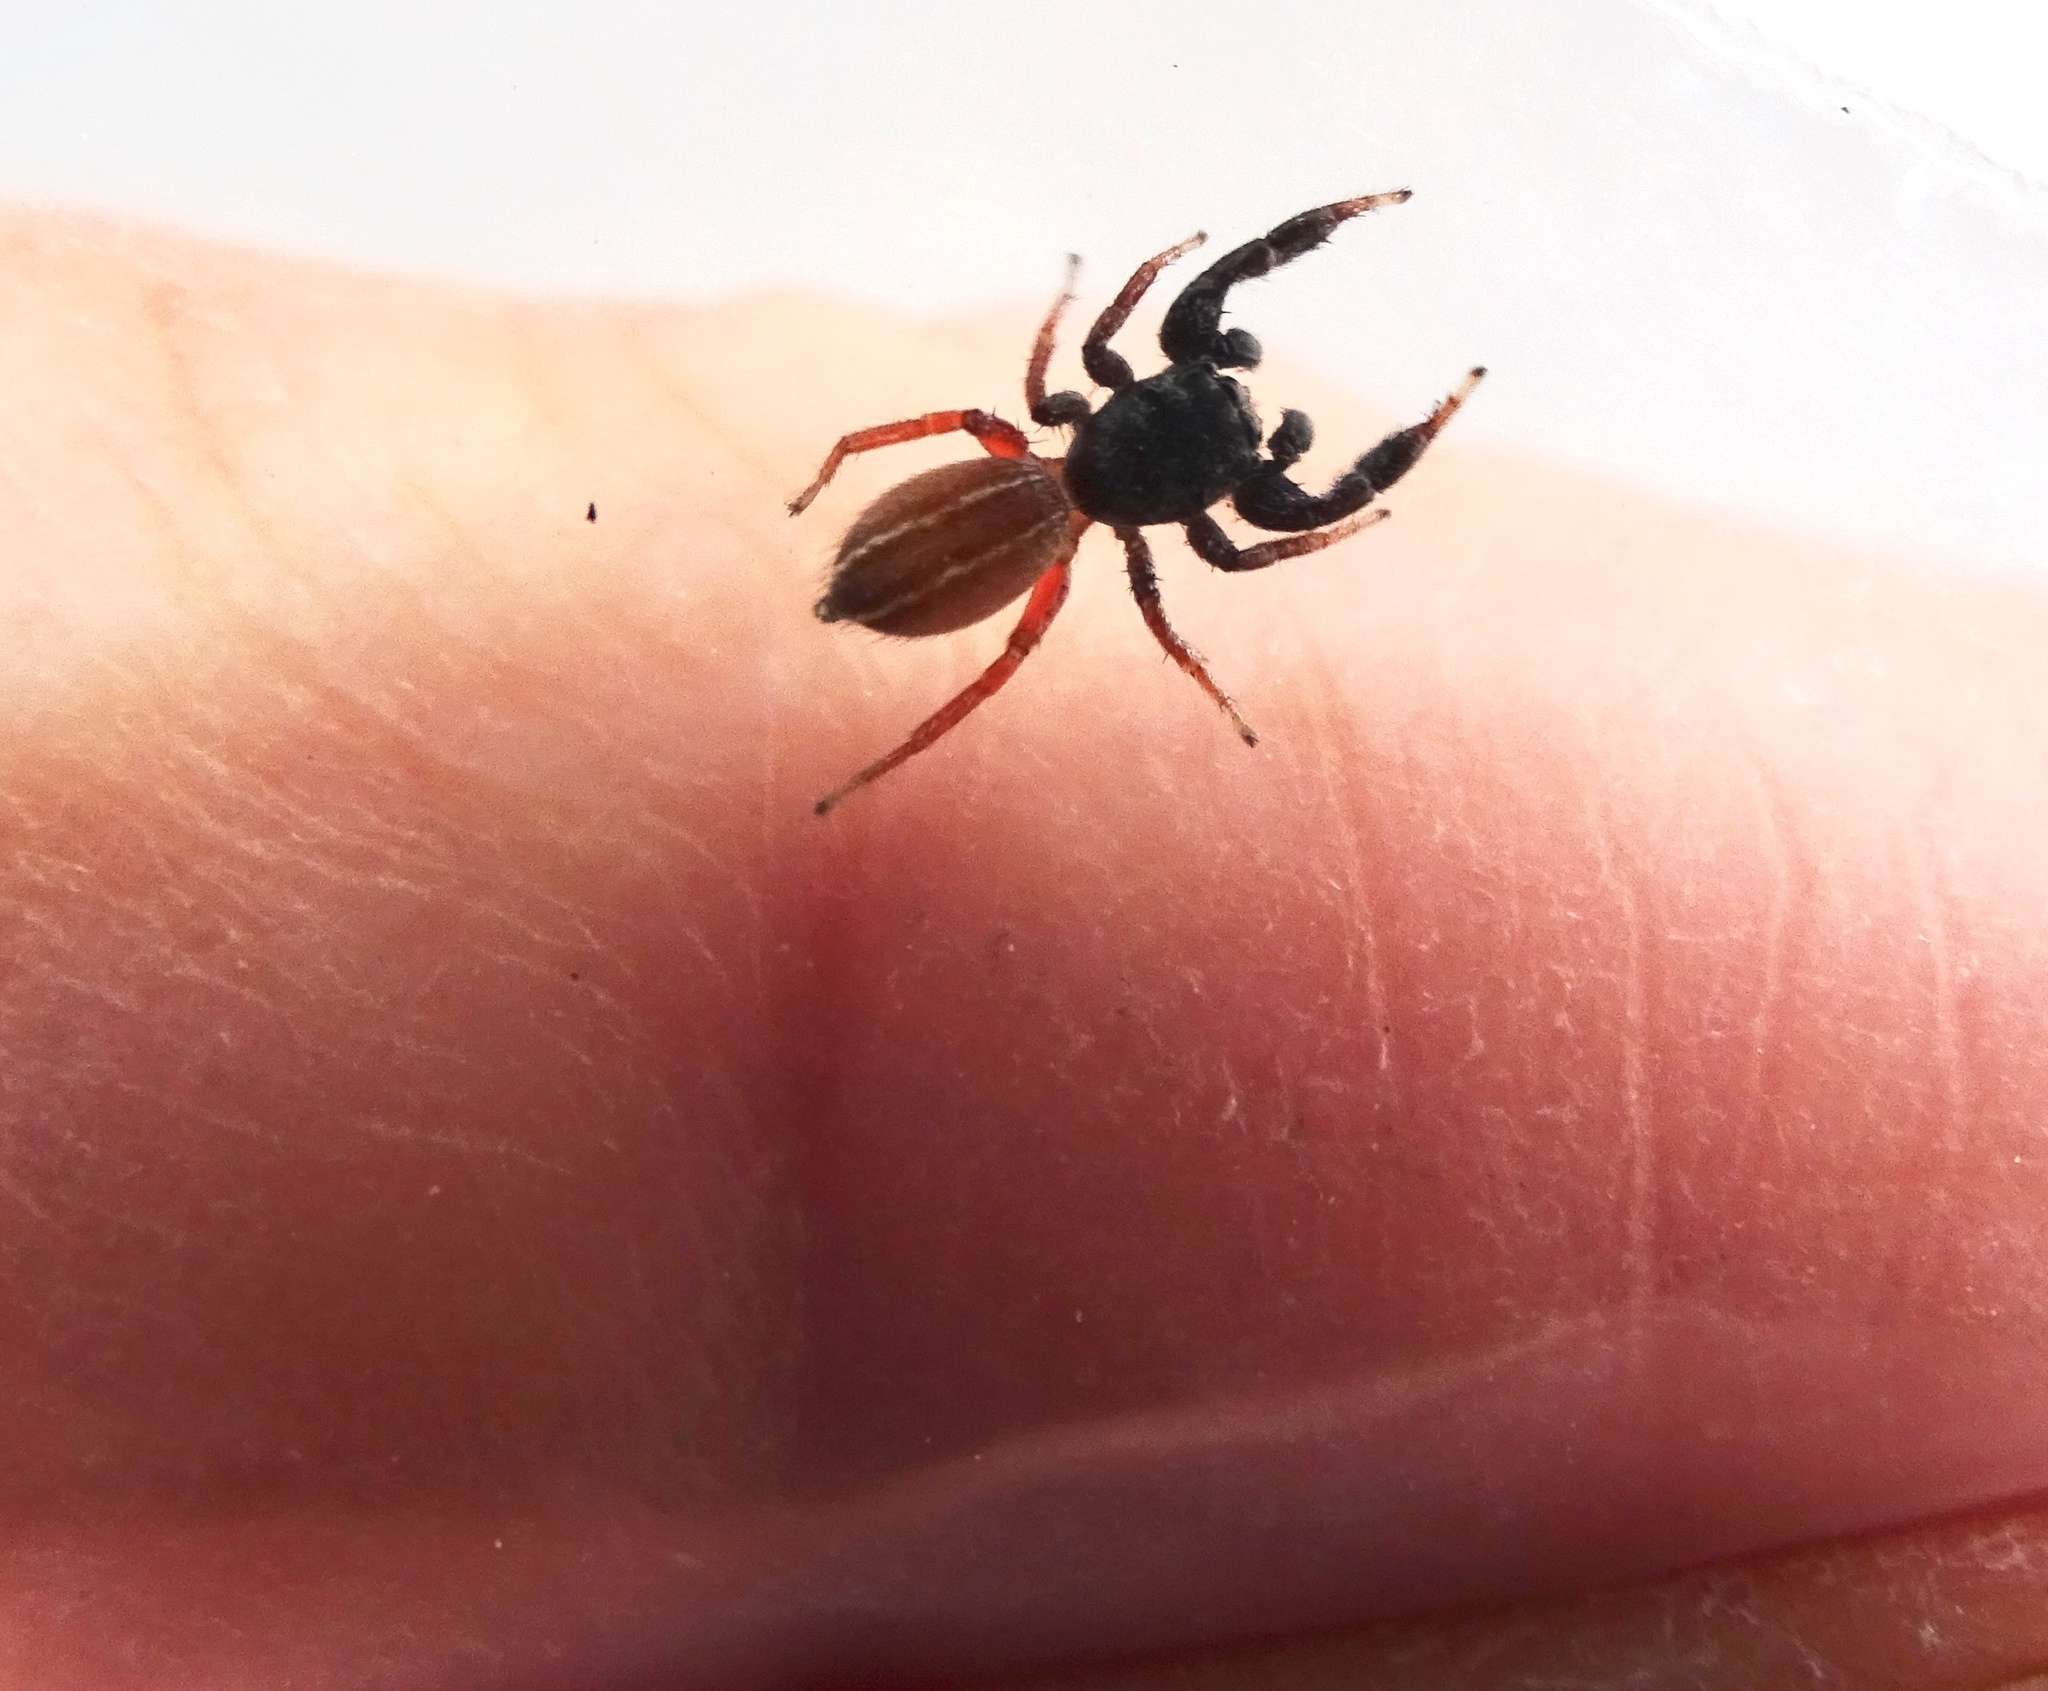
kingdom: Animalia
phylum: Arthropoda
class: Arachnida
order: Araneae
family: Salticidae
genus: Metacyrba
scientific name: Metacyrba taeniola
